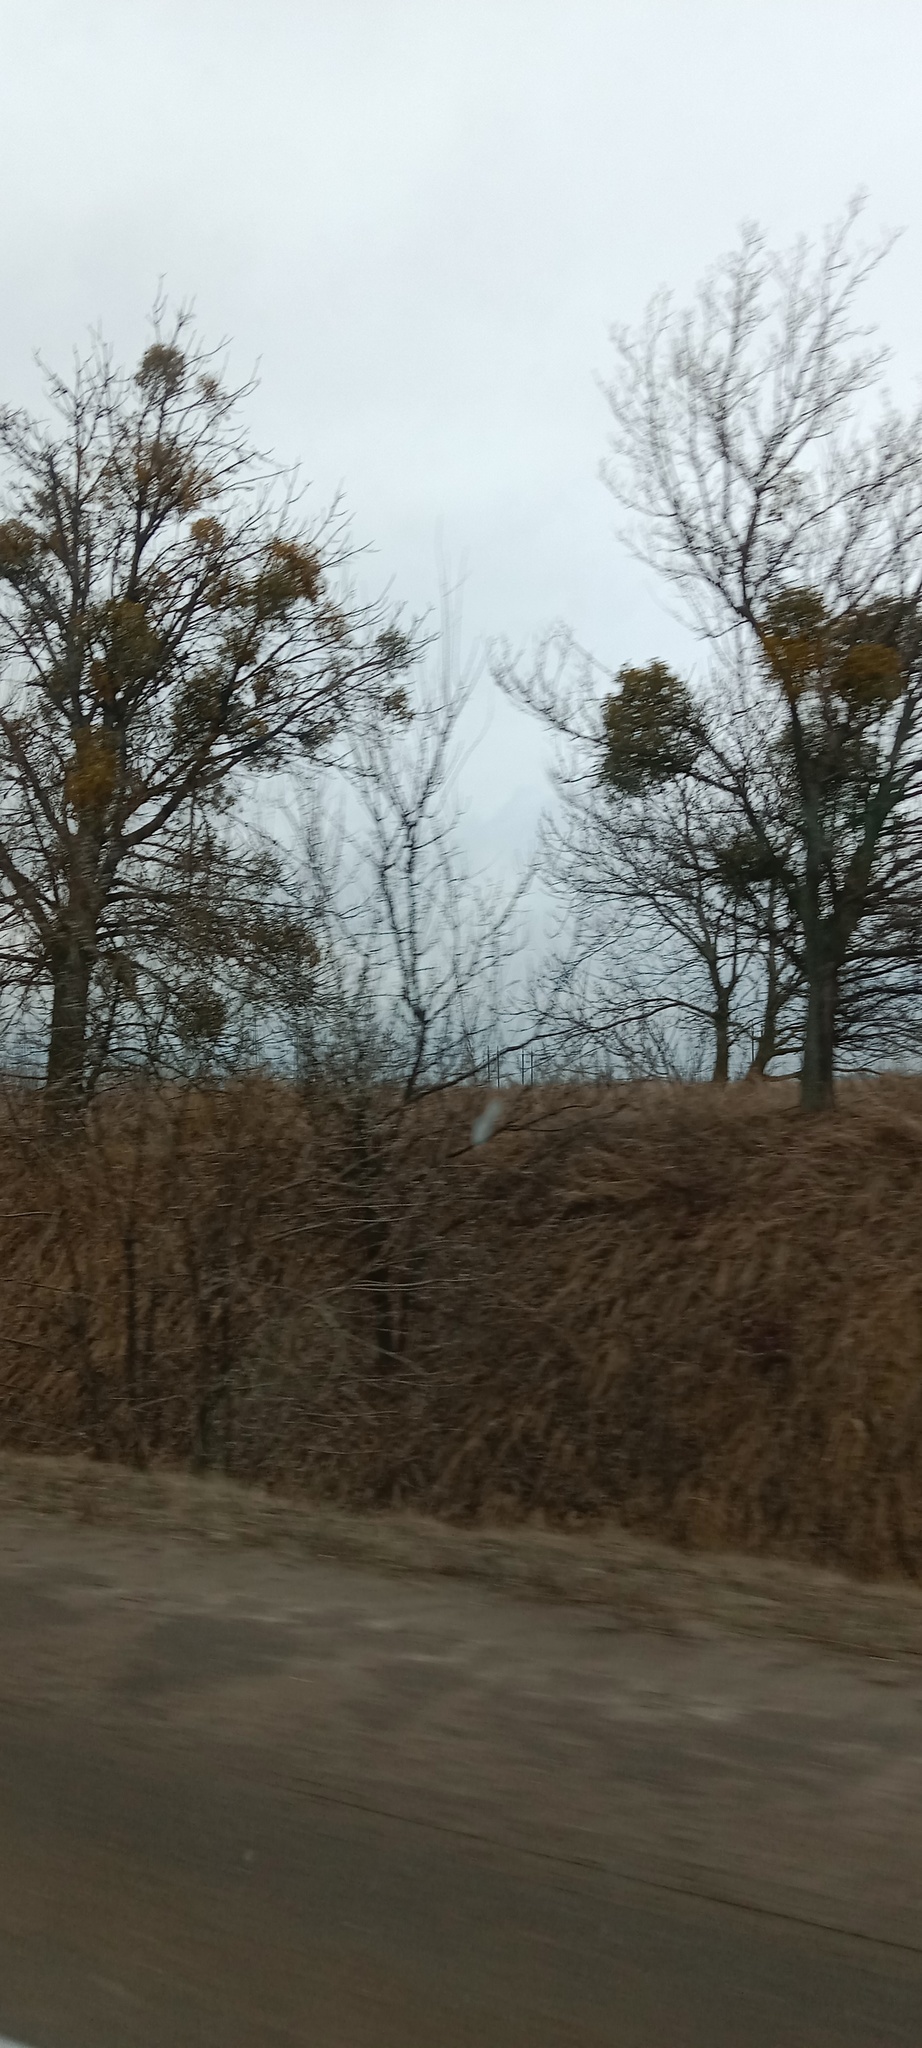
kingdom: Plantae
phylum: Tracheophyta
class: Magnoliopsida
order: Santalales
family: Viscaceae
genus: Viscum
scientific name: Viscum album
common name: Mistletoe
